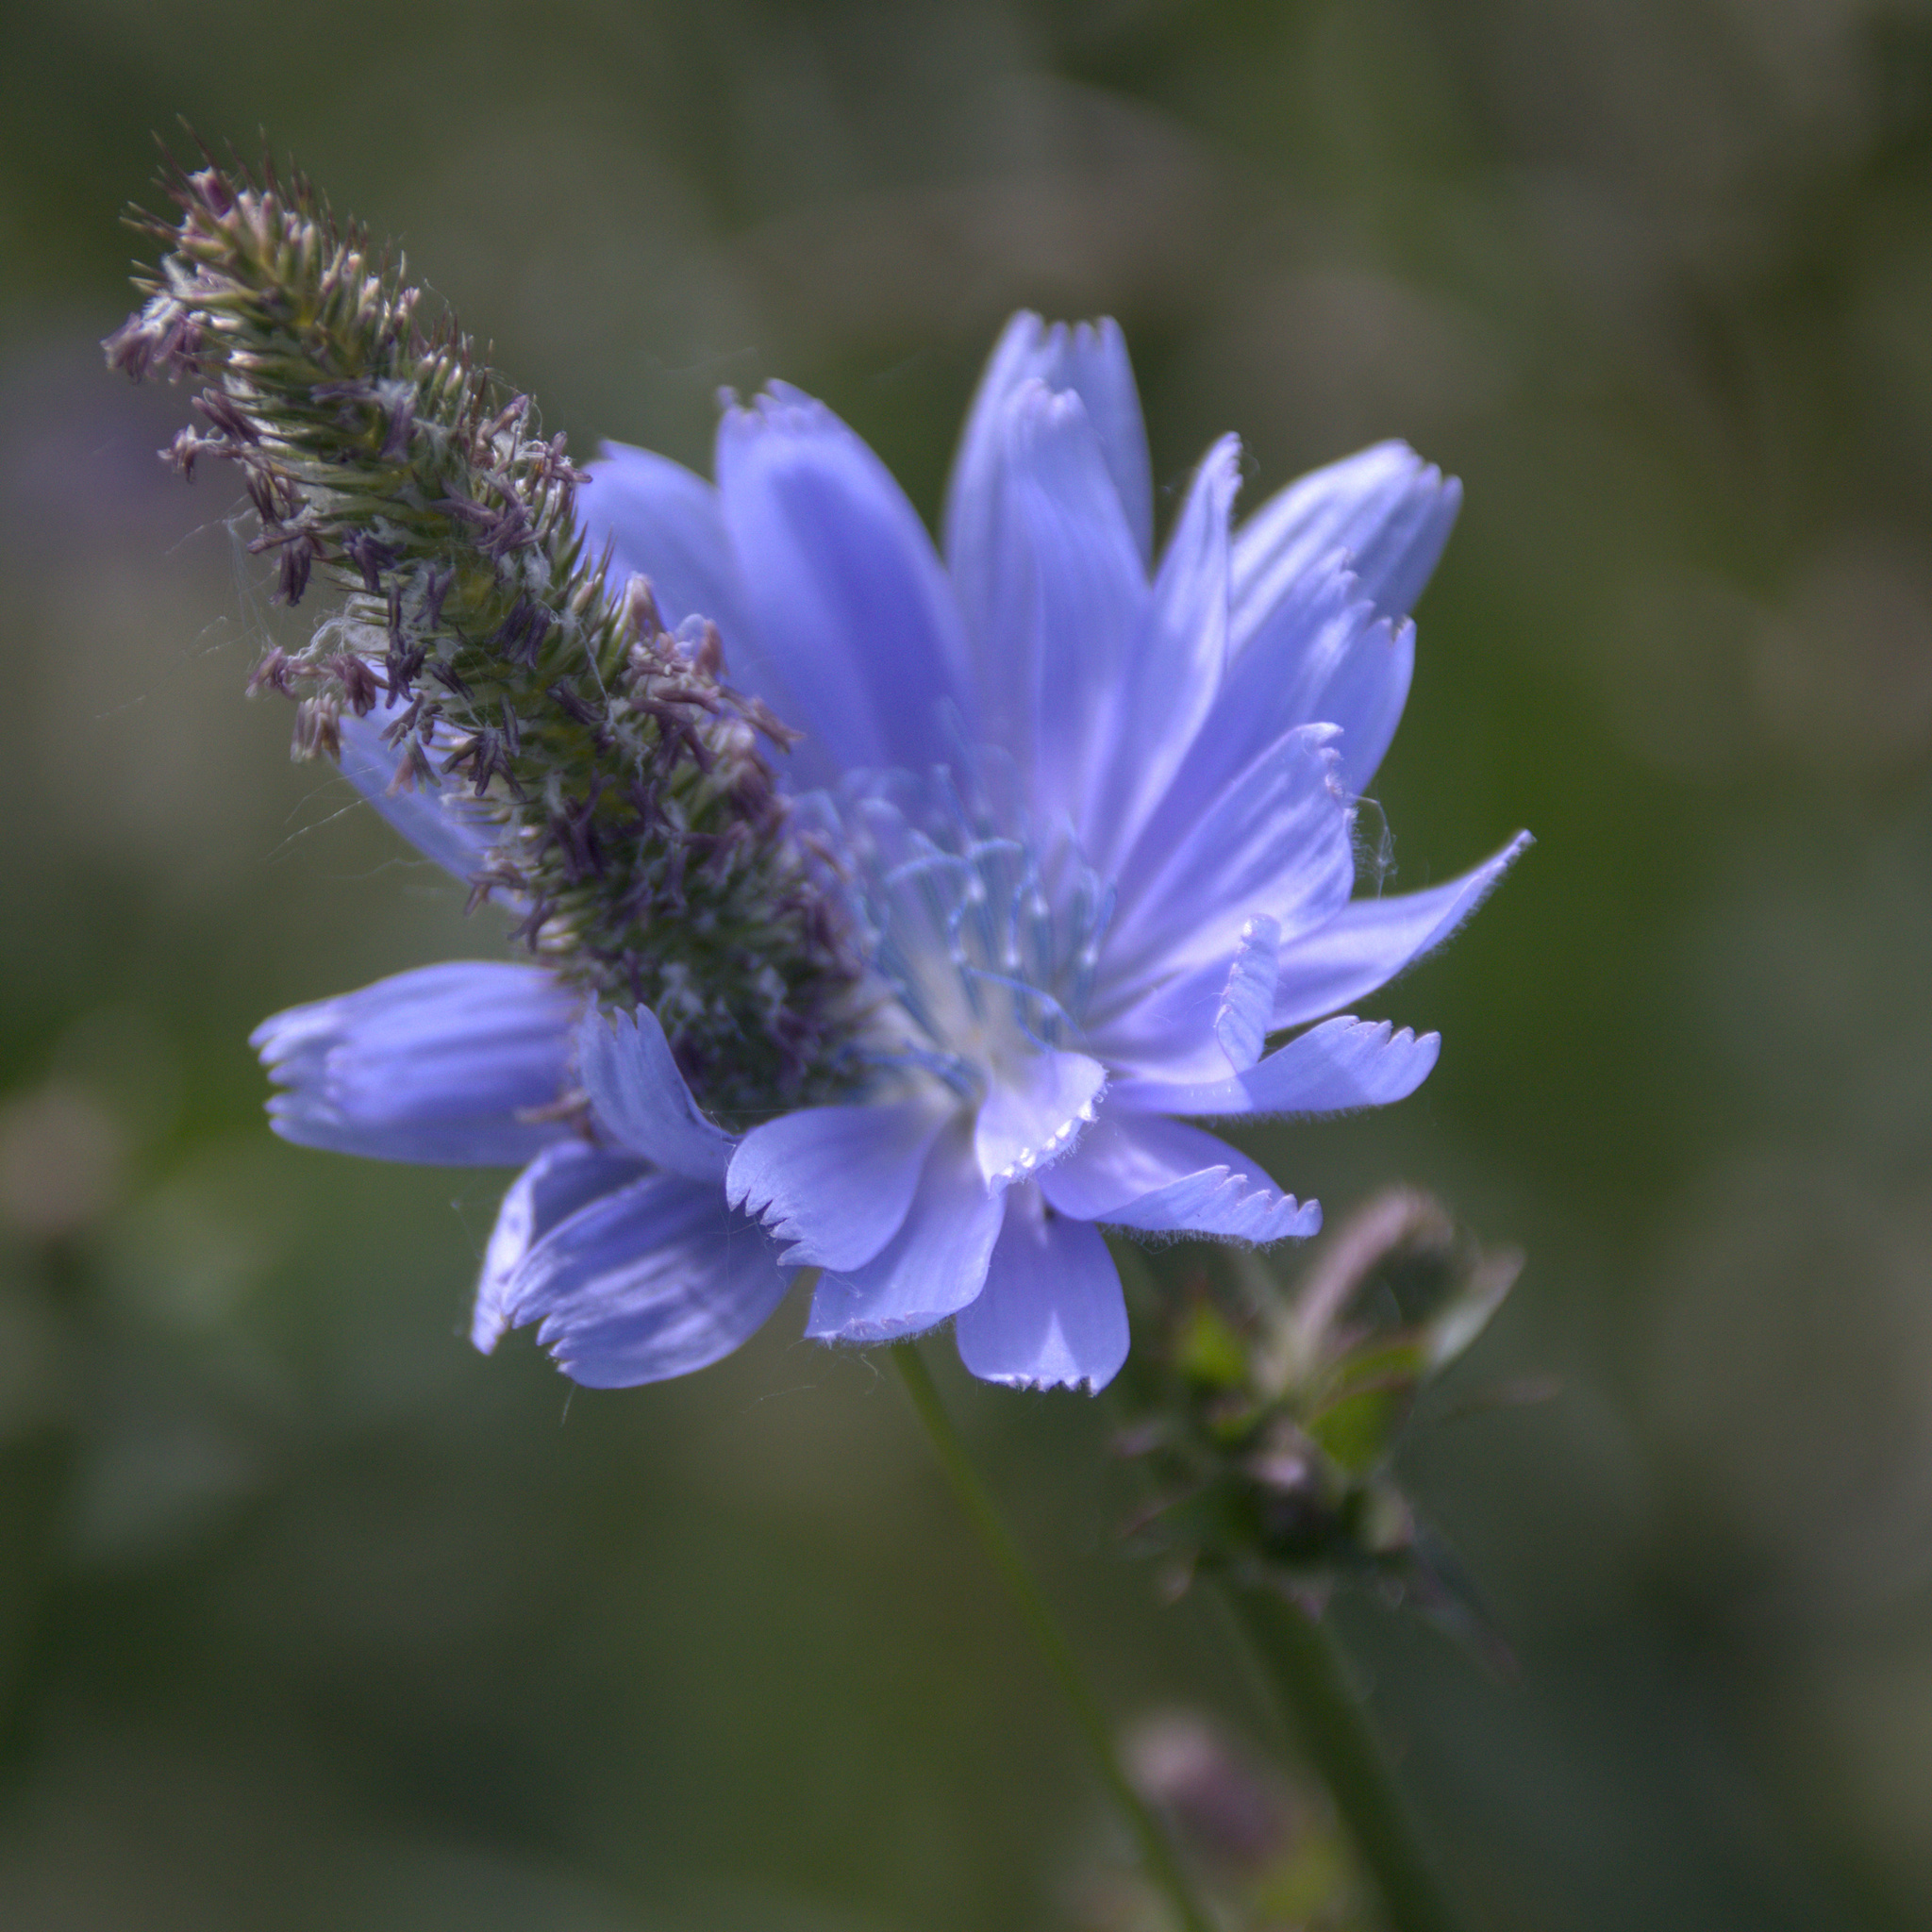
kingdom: Plantae
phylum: Tracheophyta
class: Magnoliopsida
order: Asterales
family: Asteraceae
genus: Cichorium
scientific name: Cichorium intybus
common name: Chicory
